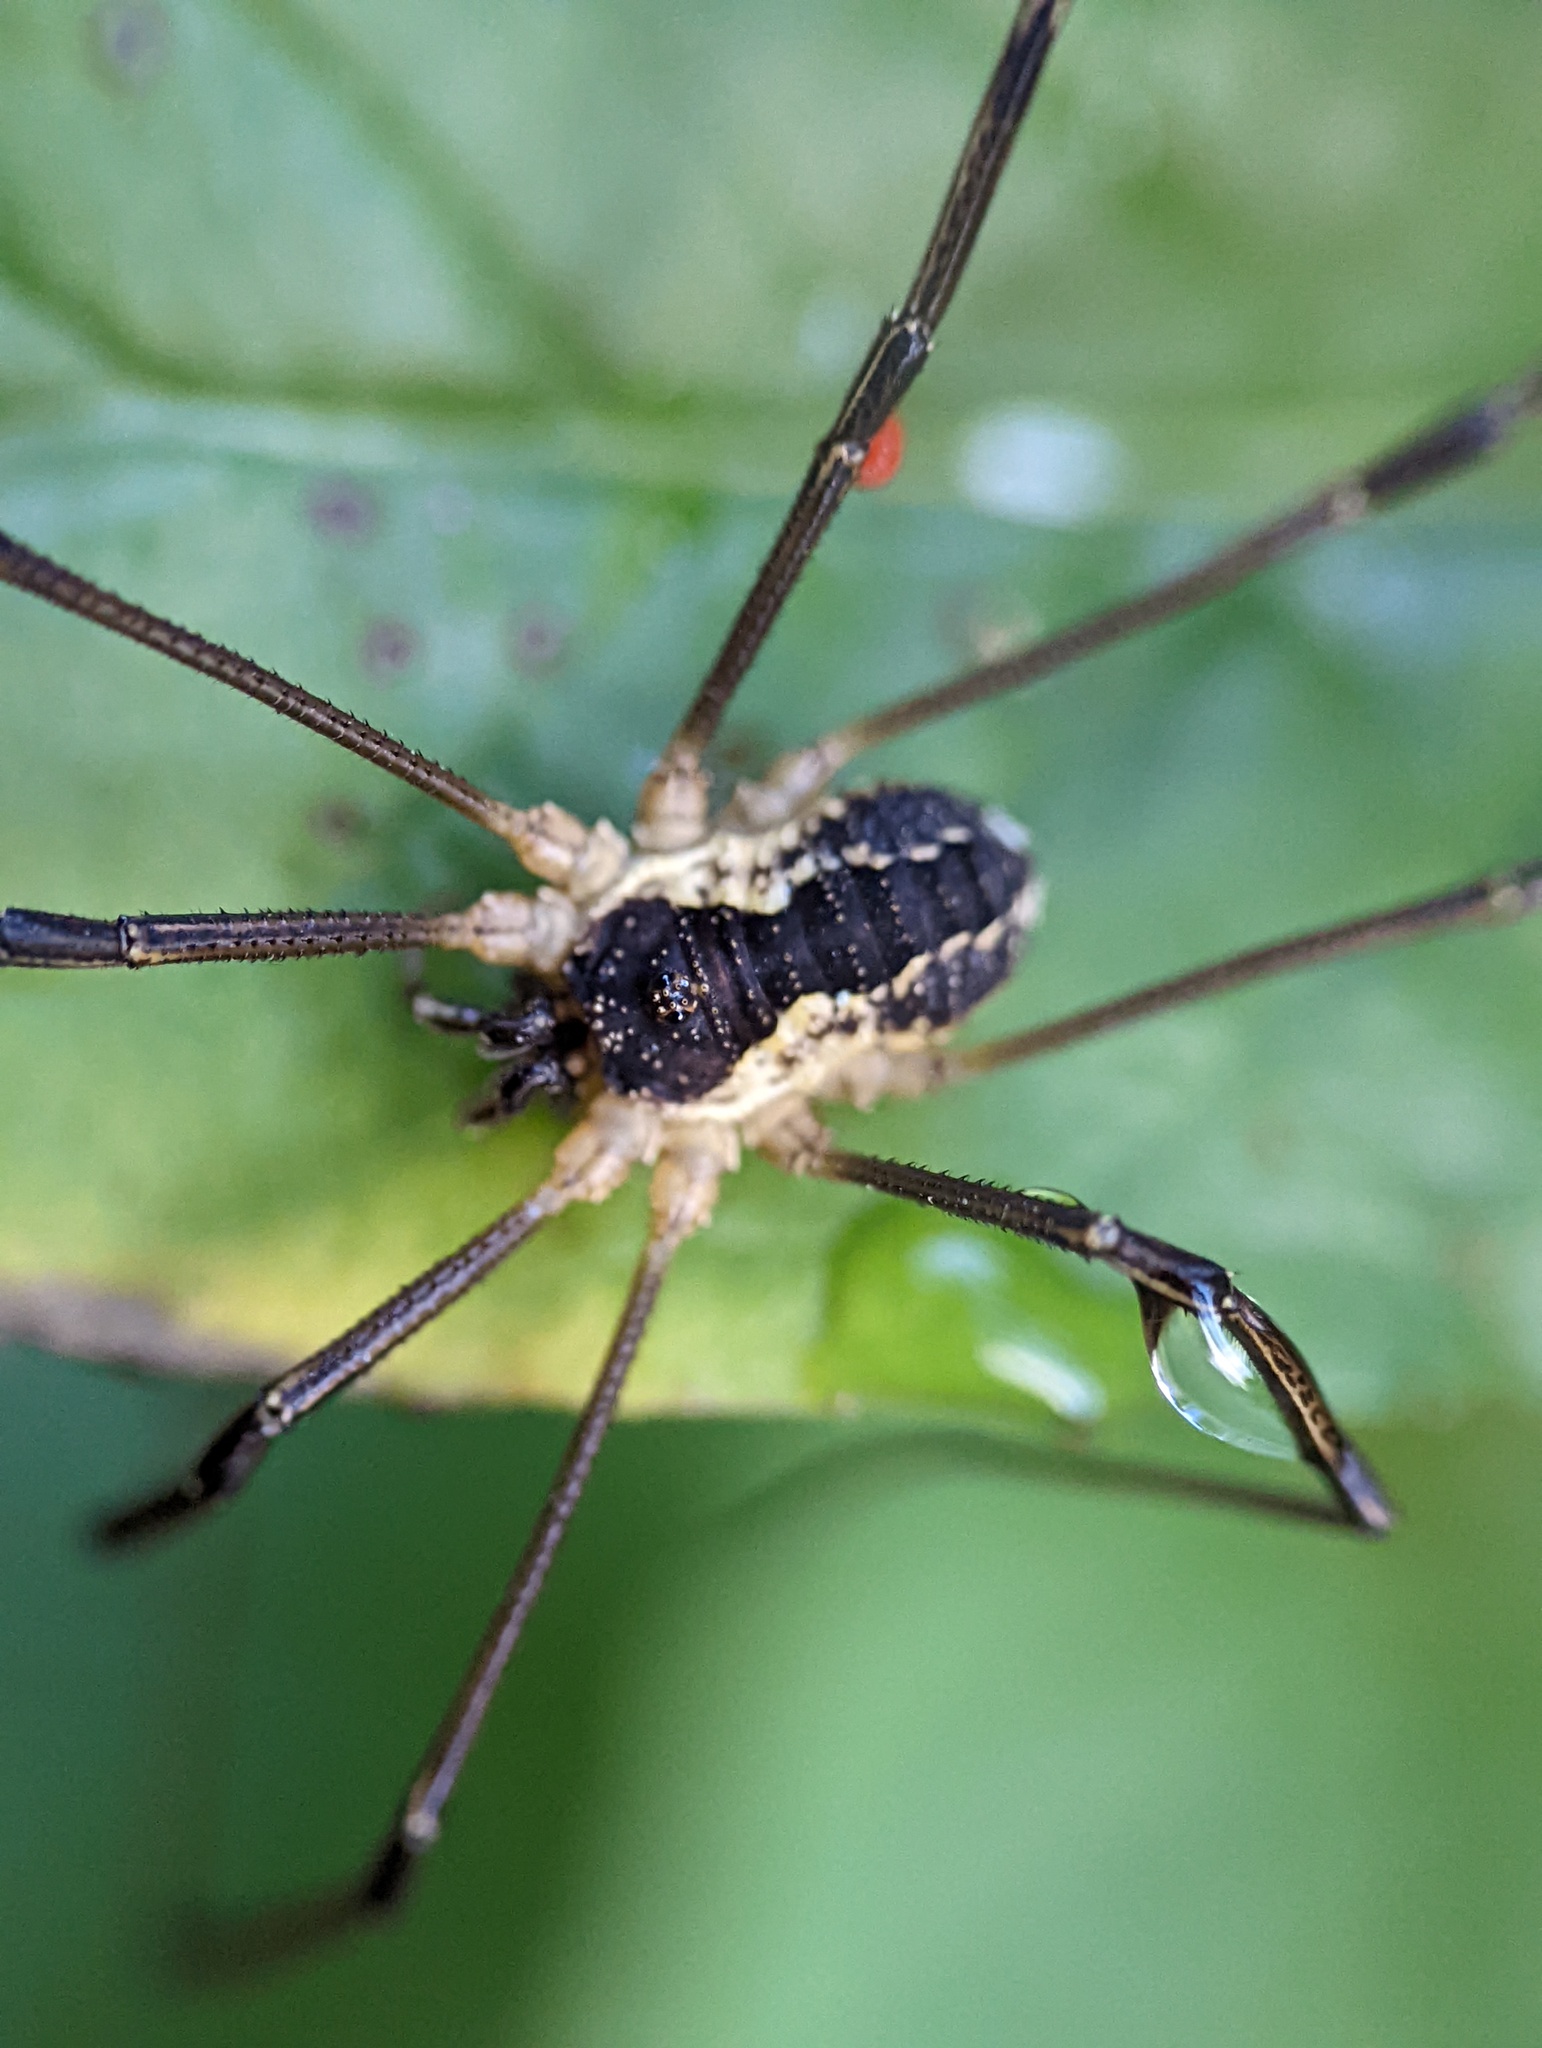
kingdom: Animalia
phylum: Arthropoda
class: Arachnida
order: Opiliones
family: Phalangiidae
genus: Mitopus
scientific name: Mitopus morio
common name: Saddleback harvestman
